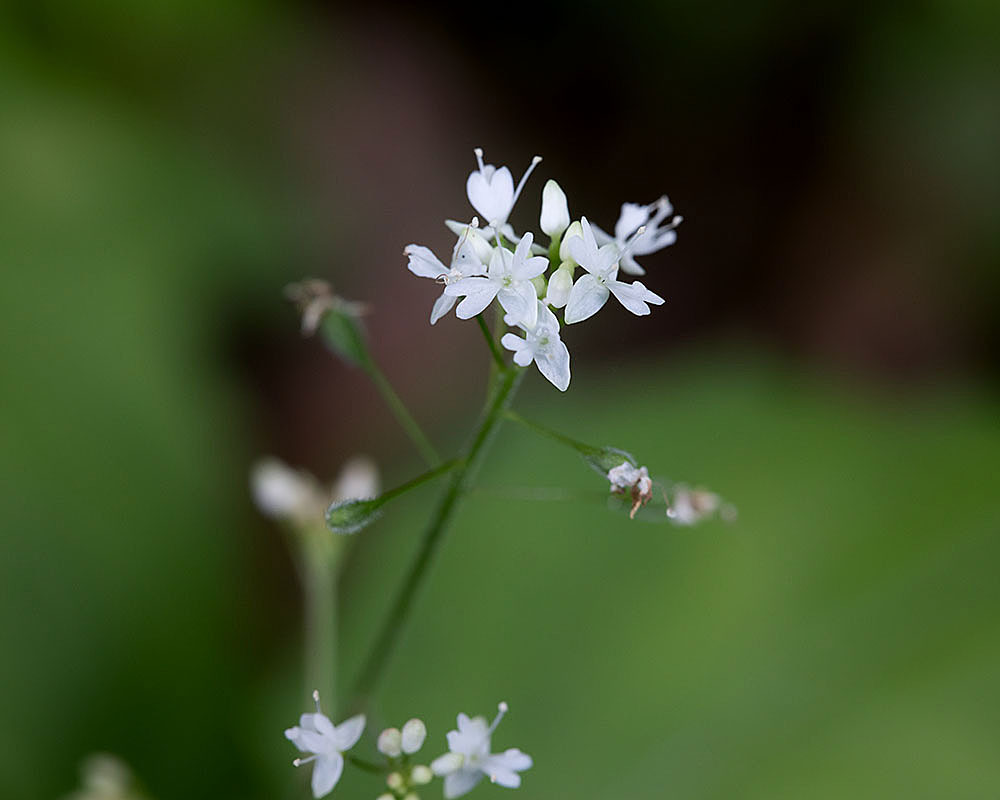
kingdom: Plantae
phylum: Tracheophyta
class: Magnoliopsida
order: Myrtales
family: Onagraceae
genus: Circaea
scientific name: Circaea alpina
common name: Alpine enchanter's-nightshade
